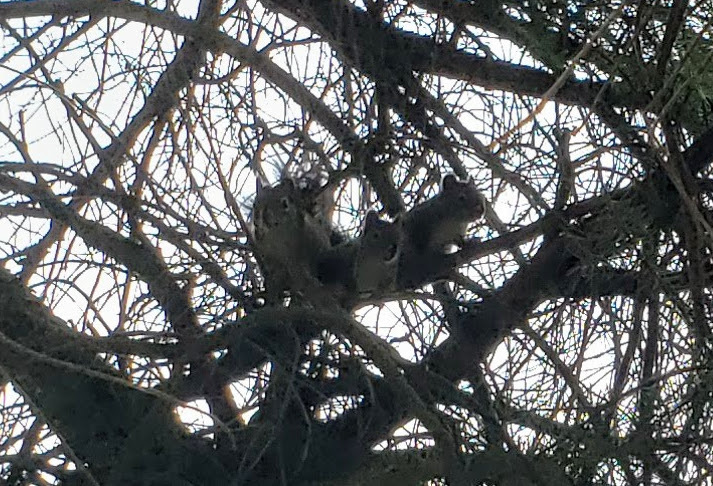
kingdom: Animalia
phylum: Chordata
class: Mammalia
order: Rodentia
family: Sciuridae
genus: Tamiasciurus
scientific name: Tamiasciurus hudsonicus
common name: Red squirrel
